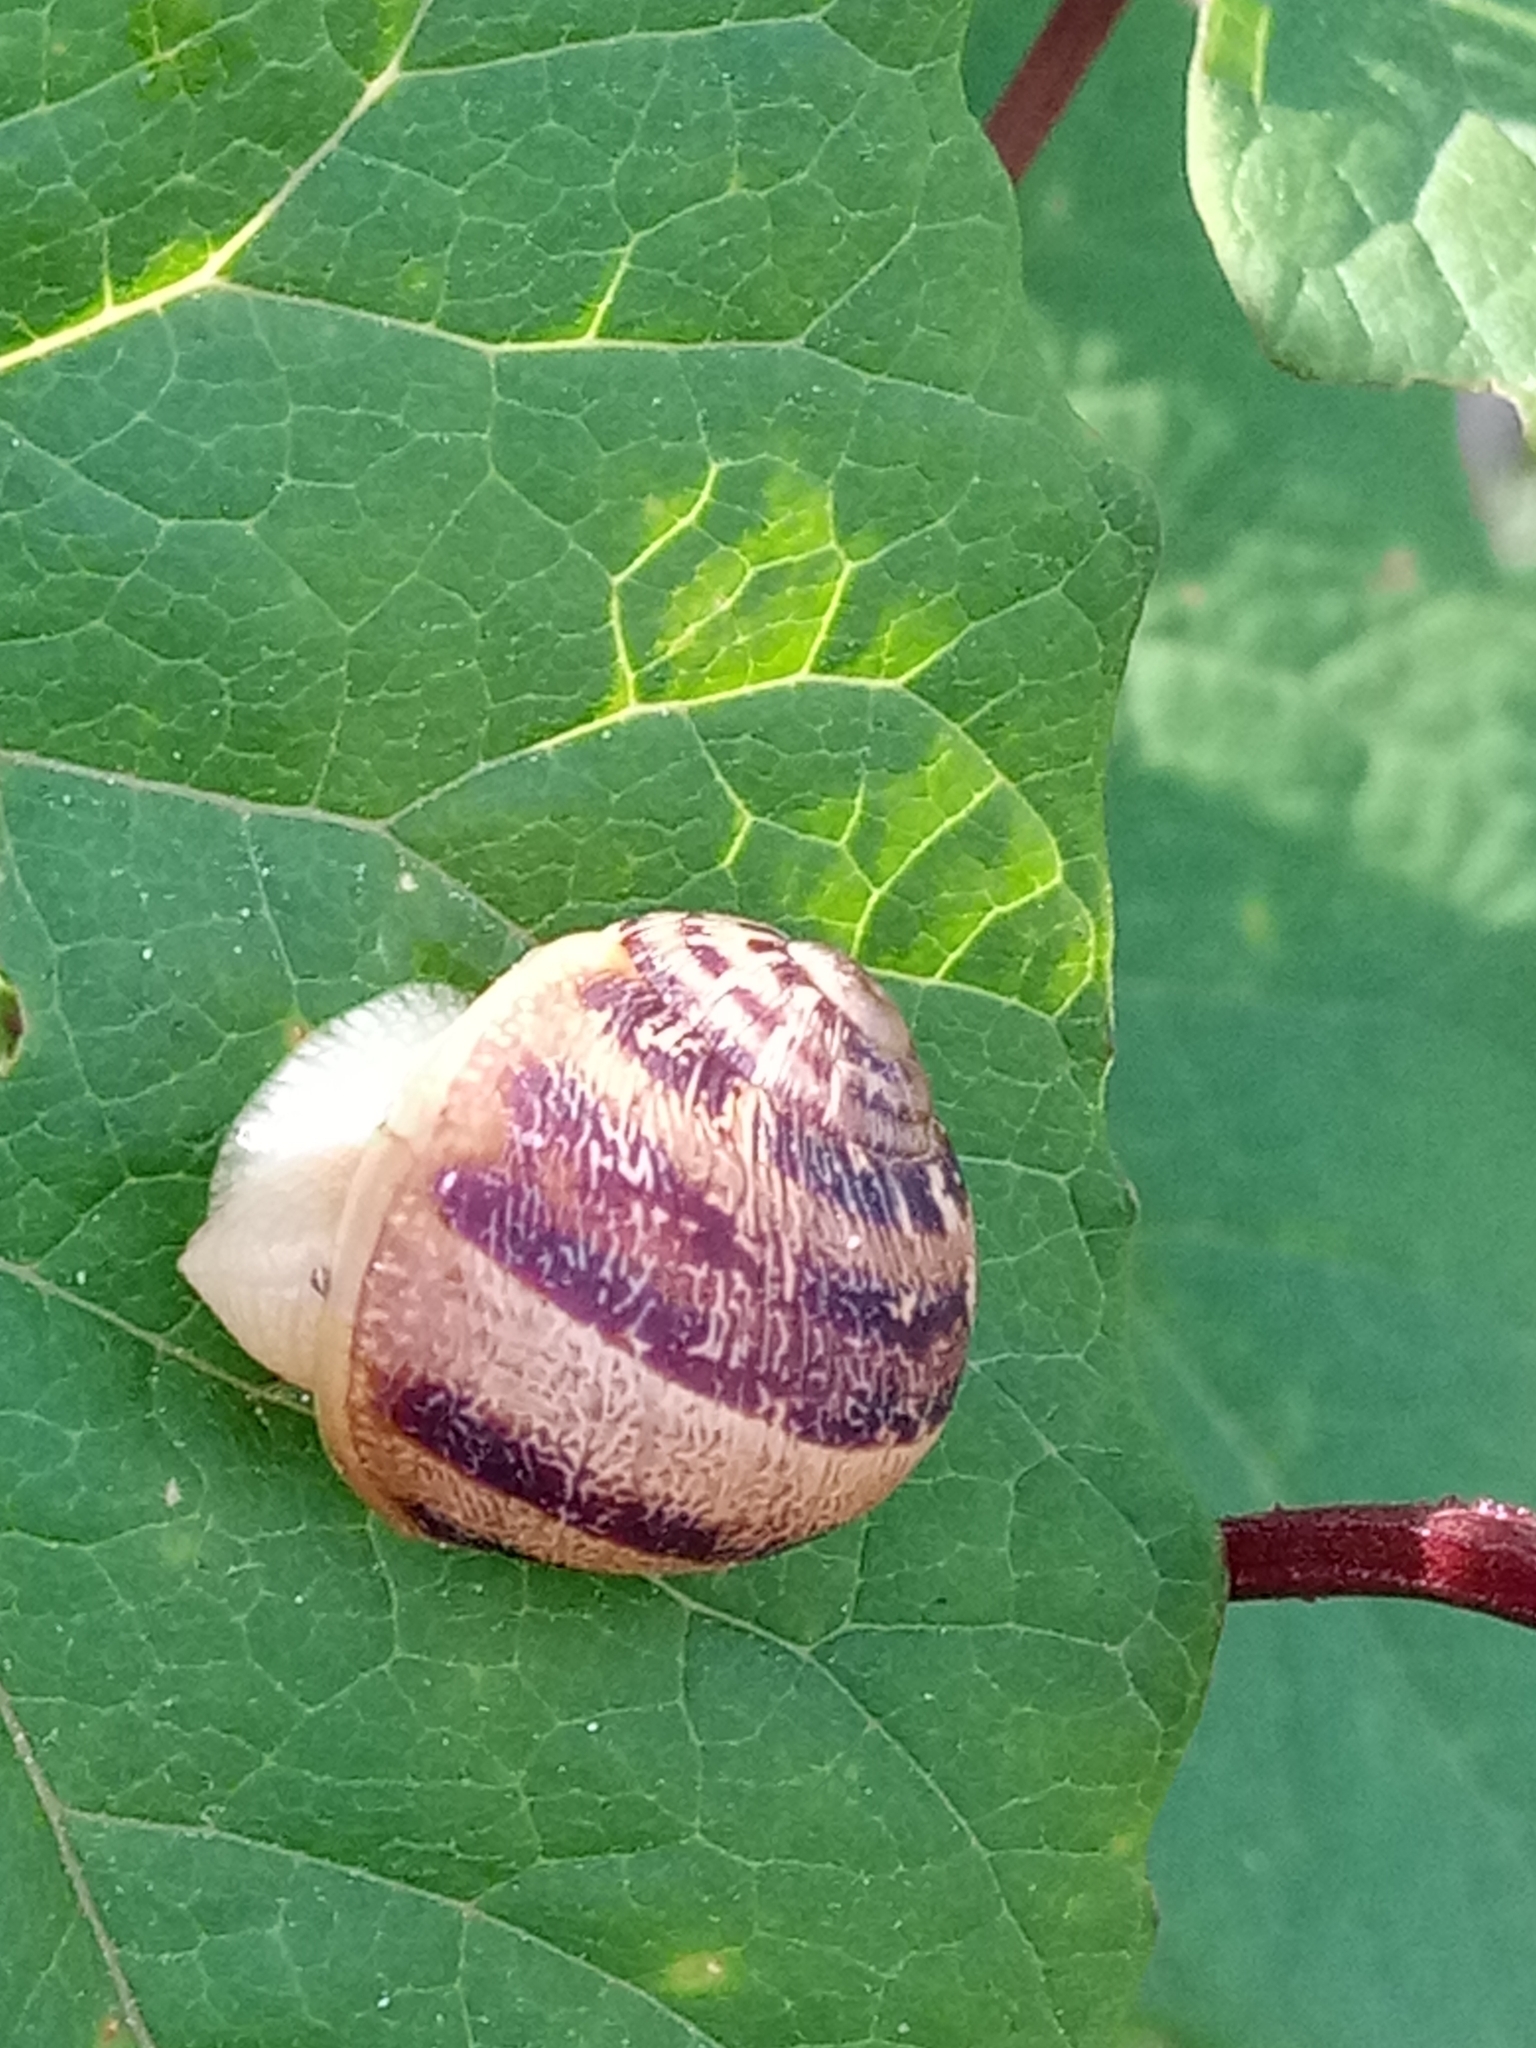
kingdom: Animalia
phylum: Mollusca
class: Gastropoda
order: Stylommatophora
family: Helicidae
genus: Cornu
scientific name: Cornu aspersum
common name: Brown garden snail
